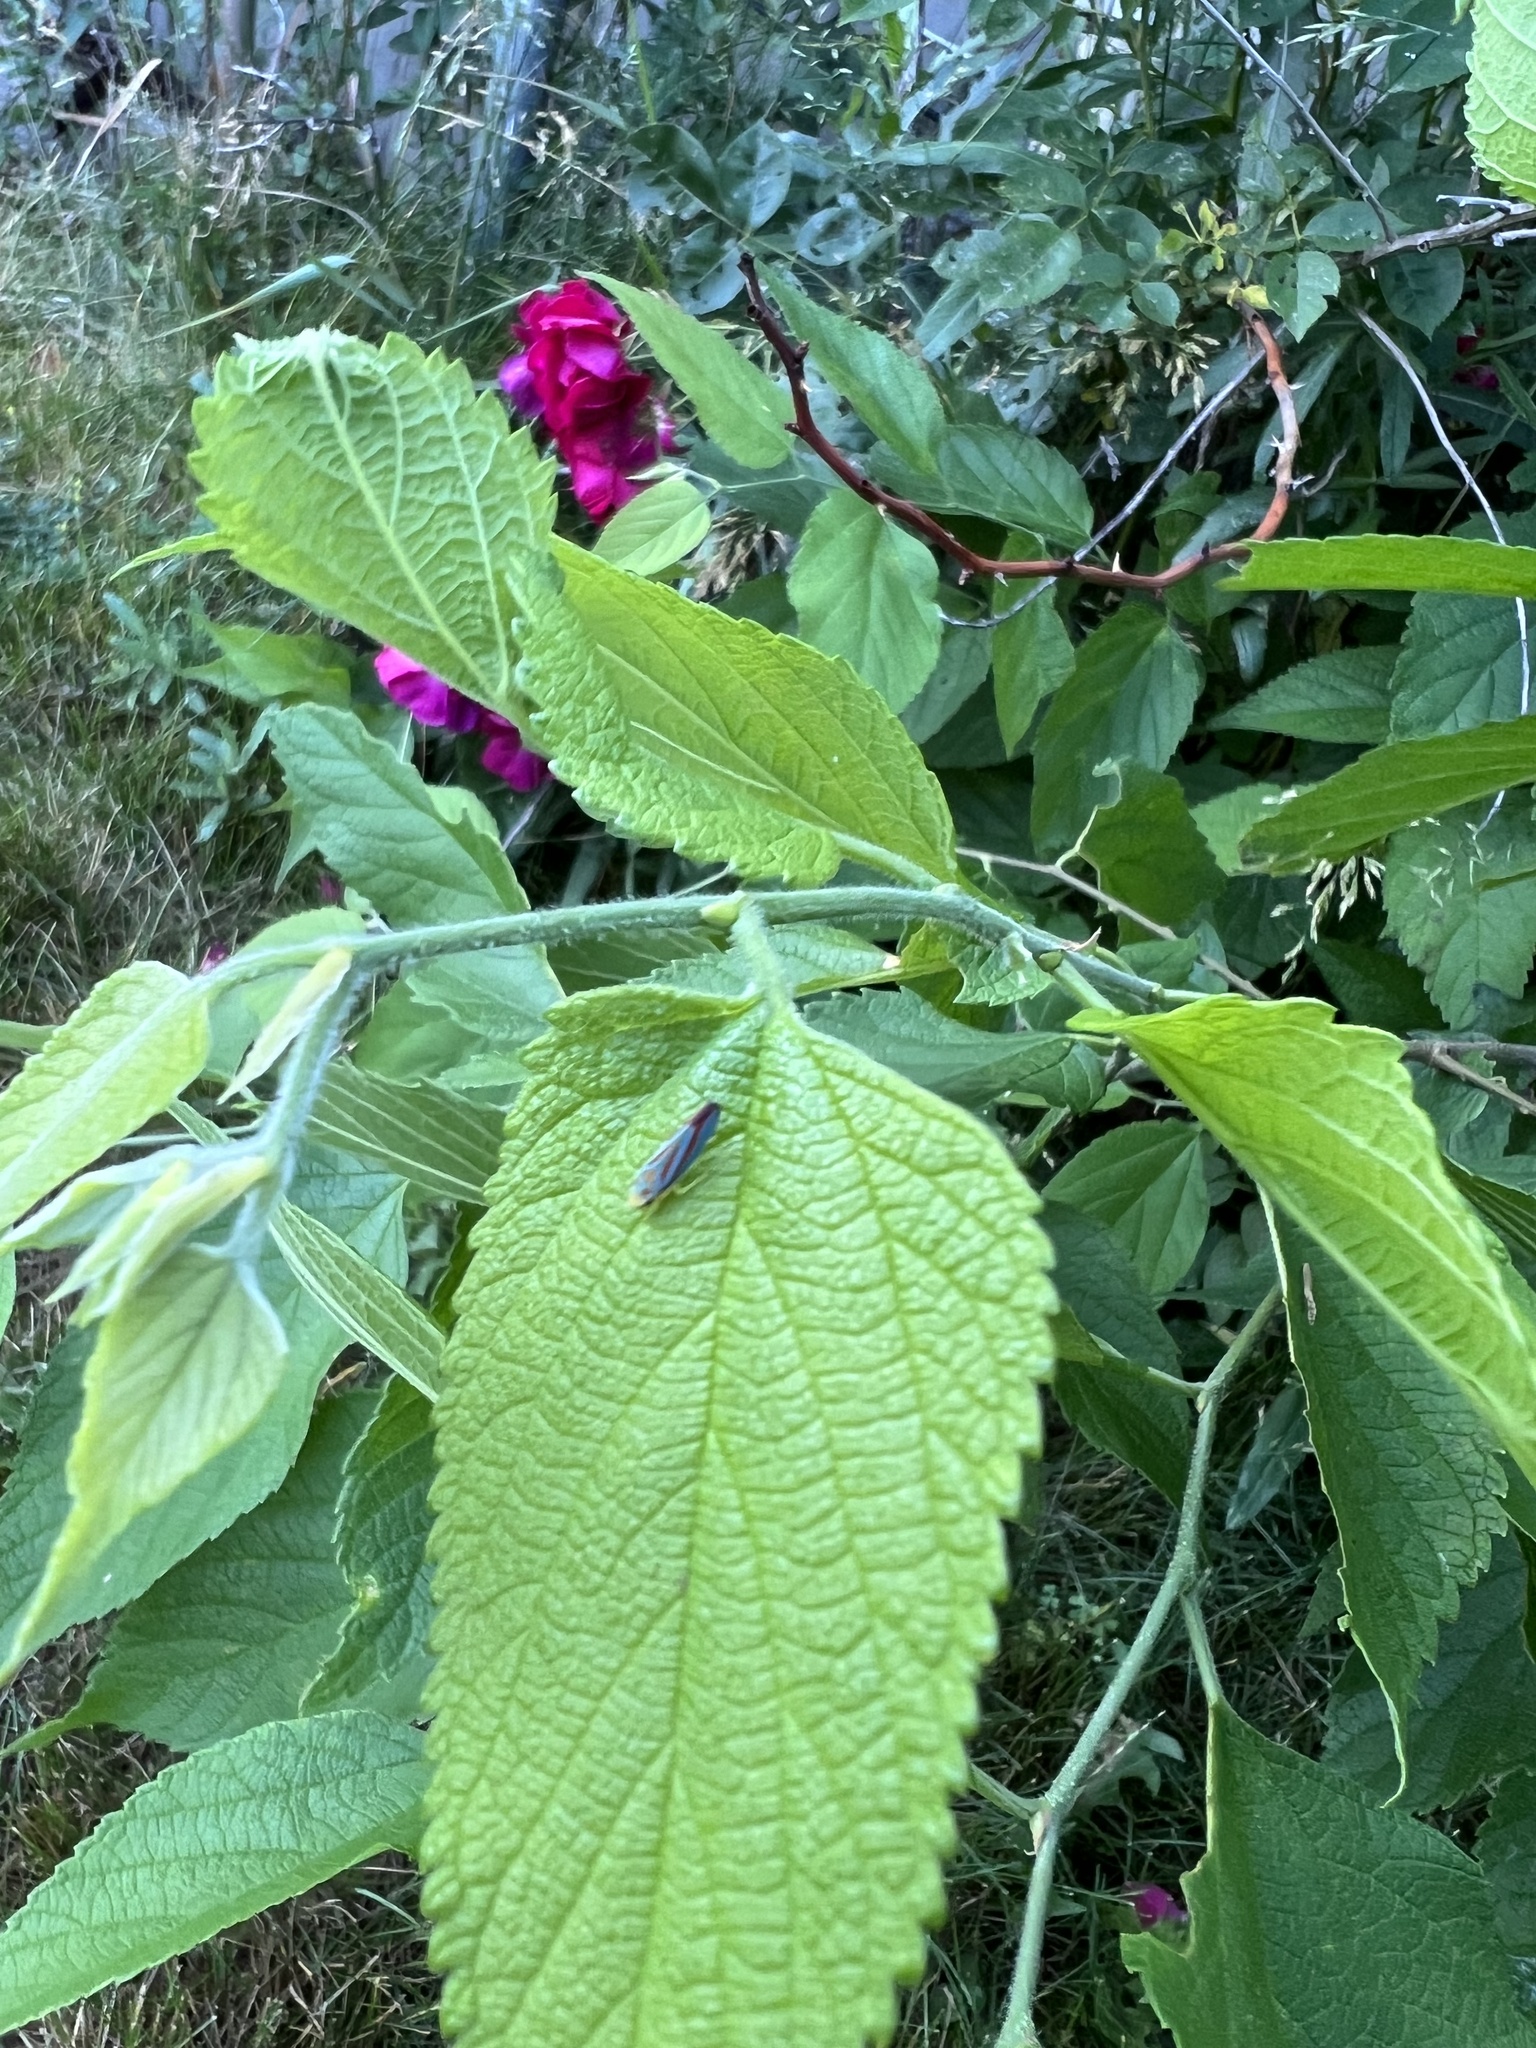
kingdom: Animalia
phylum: Arthropoda
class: Insecta
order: Hemiptera
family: Cicadellidae
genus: Graphocephala
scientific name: Graphocephala coccinea
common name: Candy-striped leafhopper
